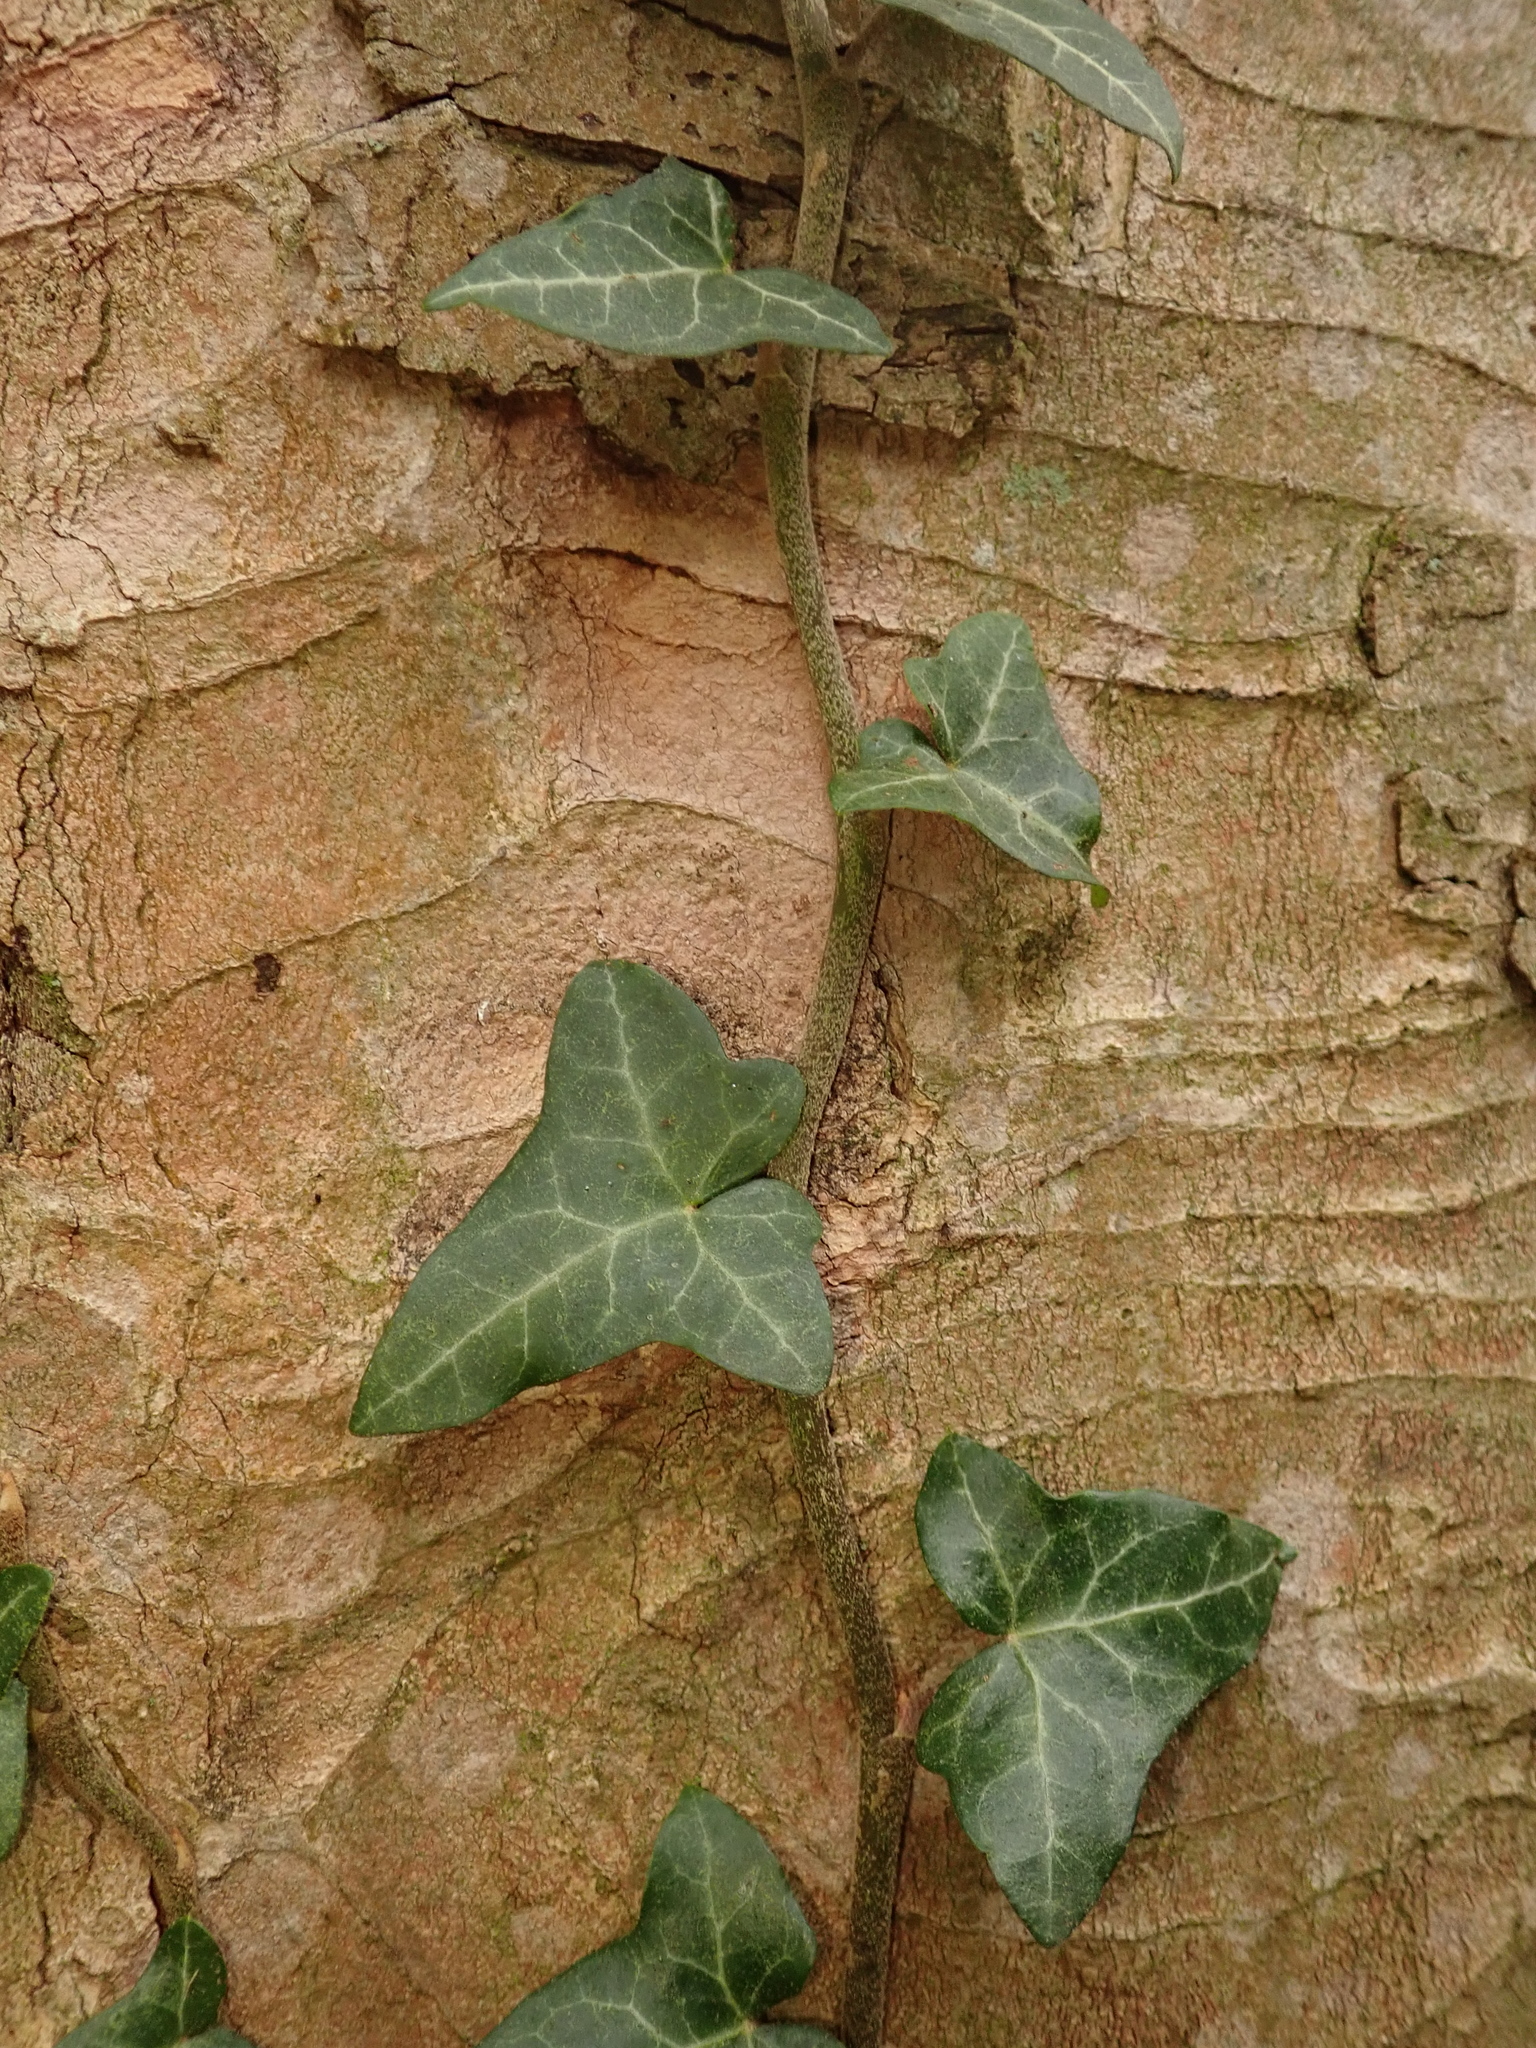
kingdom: Plantae
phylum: Tracheophyta
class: Magnoliopsida
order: Apiales
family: Araliaceae
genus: Hedera
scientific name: Hedera helix
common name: Ivy
